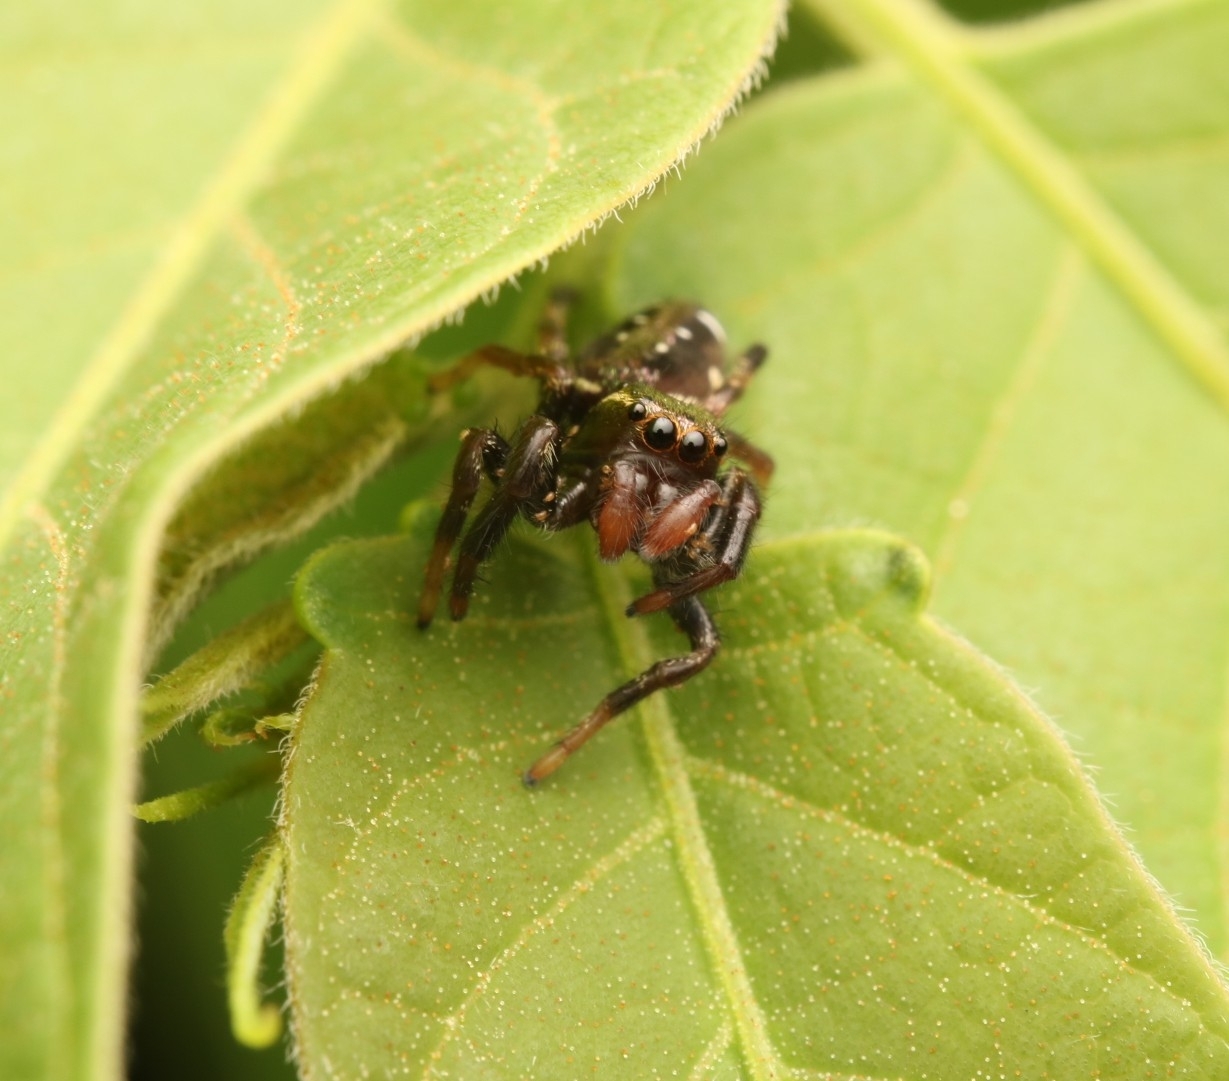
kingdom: Animalia
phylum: Arthropoda
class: Arachnida
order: Araneae
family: Salticidae
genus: Paraphidippus
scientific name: Paraphidippus aurantius
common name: Jumping spiders
